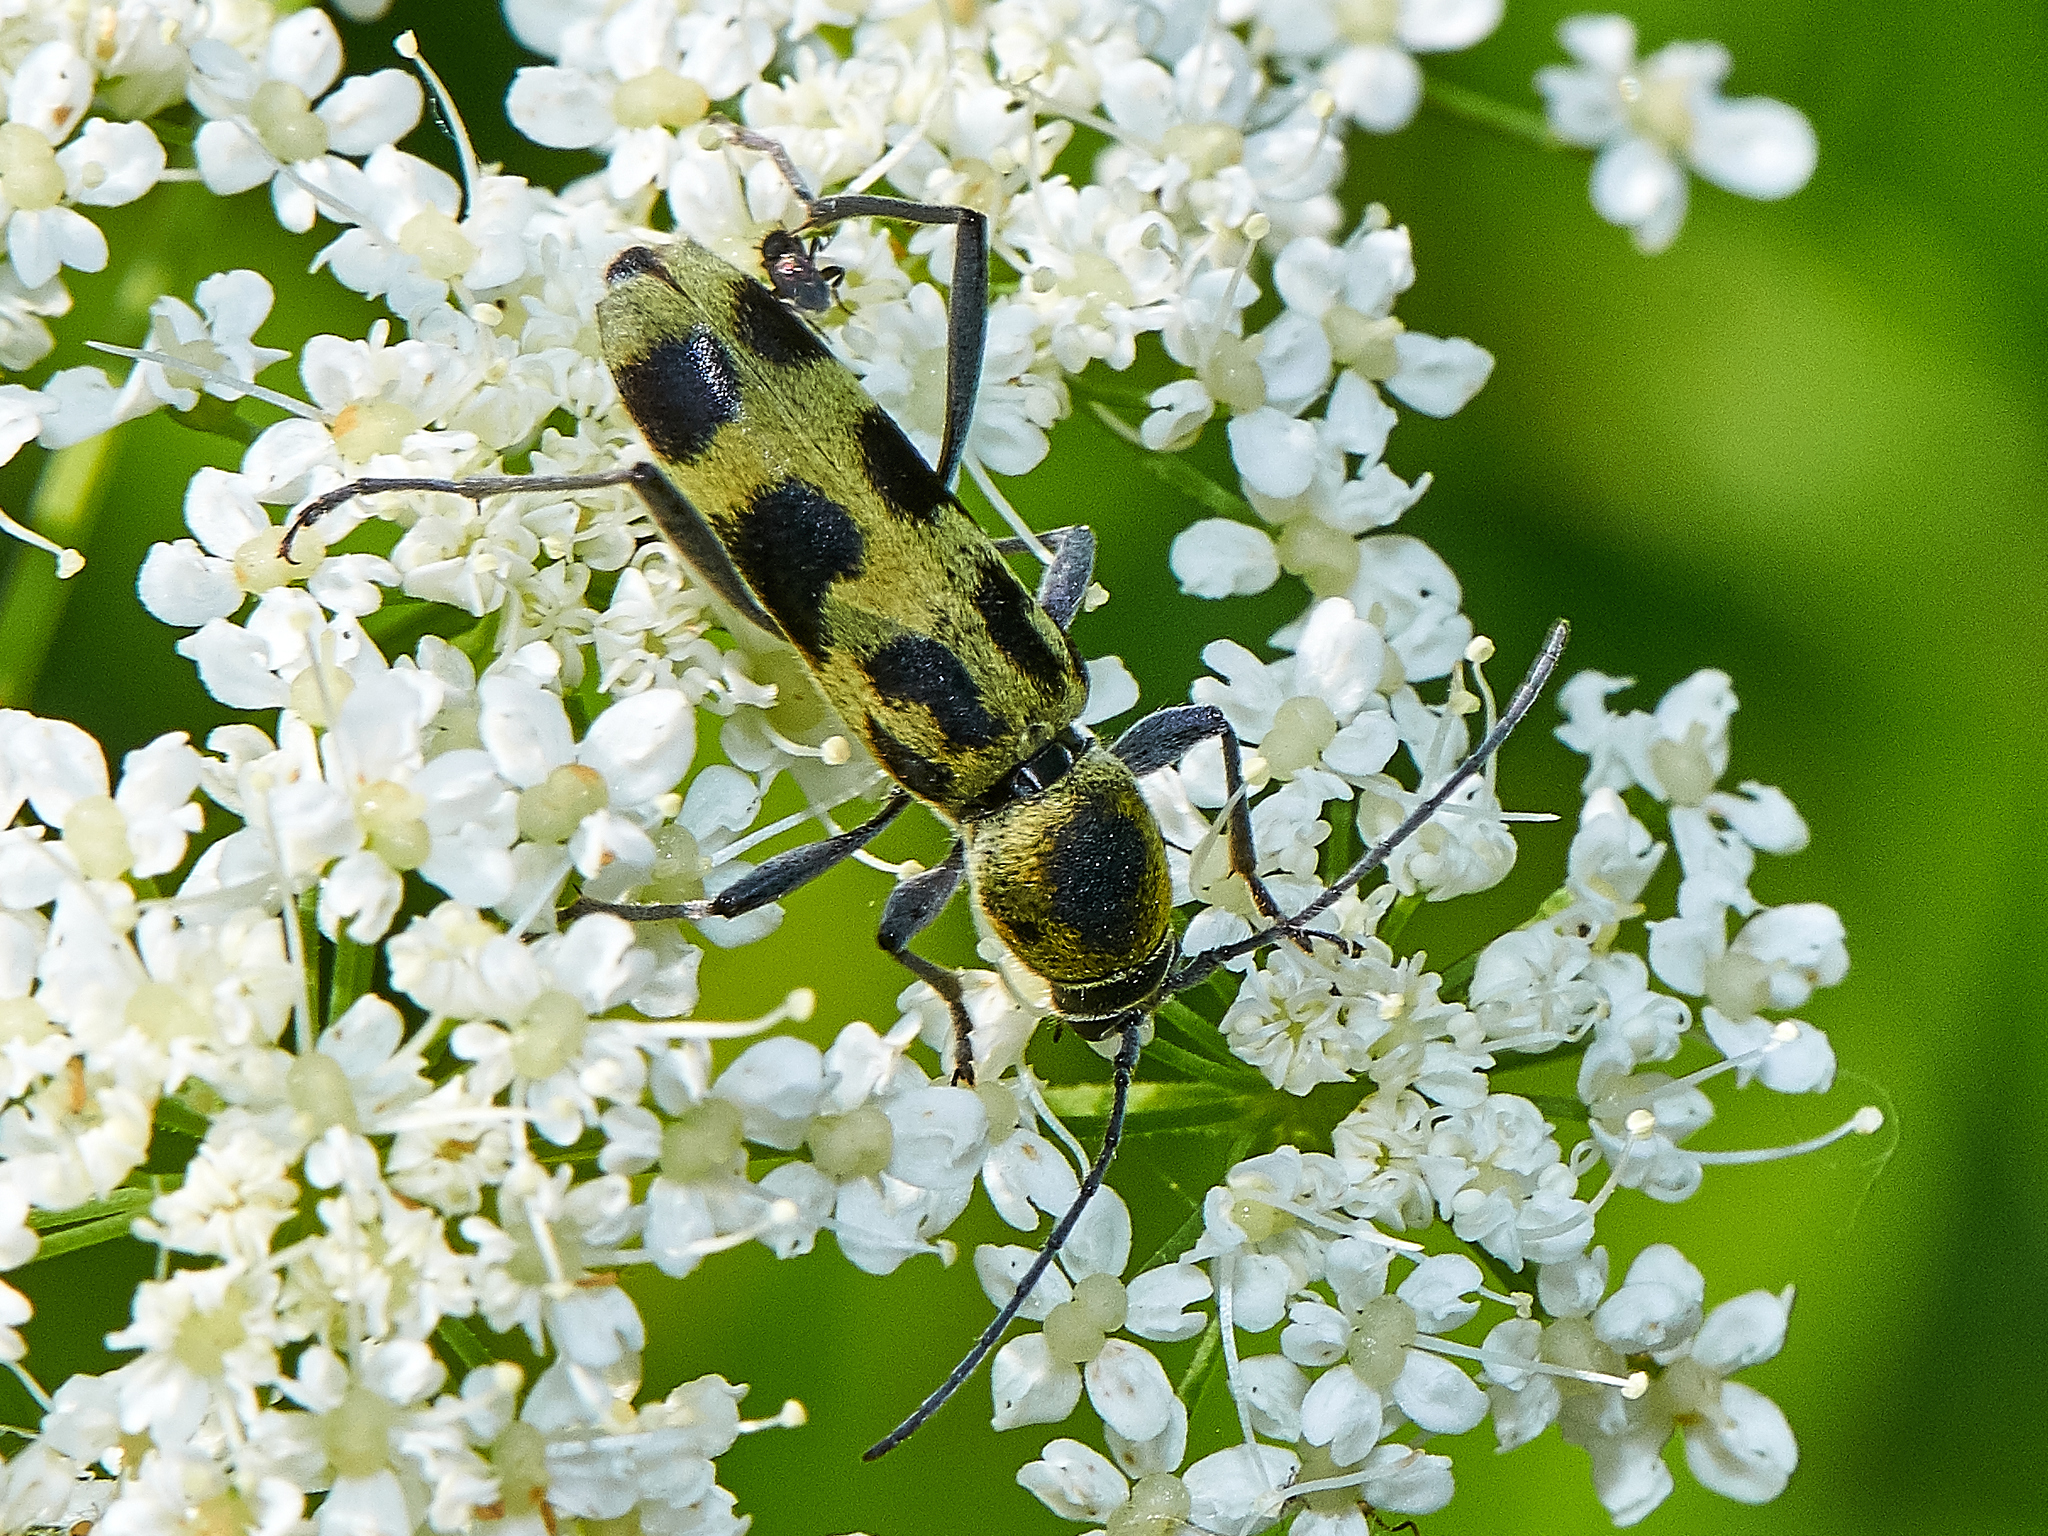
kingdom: Animalia
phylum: Arthropoda
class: Insecta
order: Coleoptera
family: Cerambycidae
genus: Chlorophorus
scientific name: Chlorophorus herbstii
